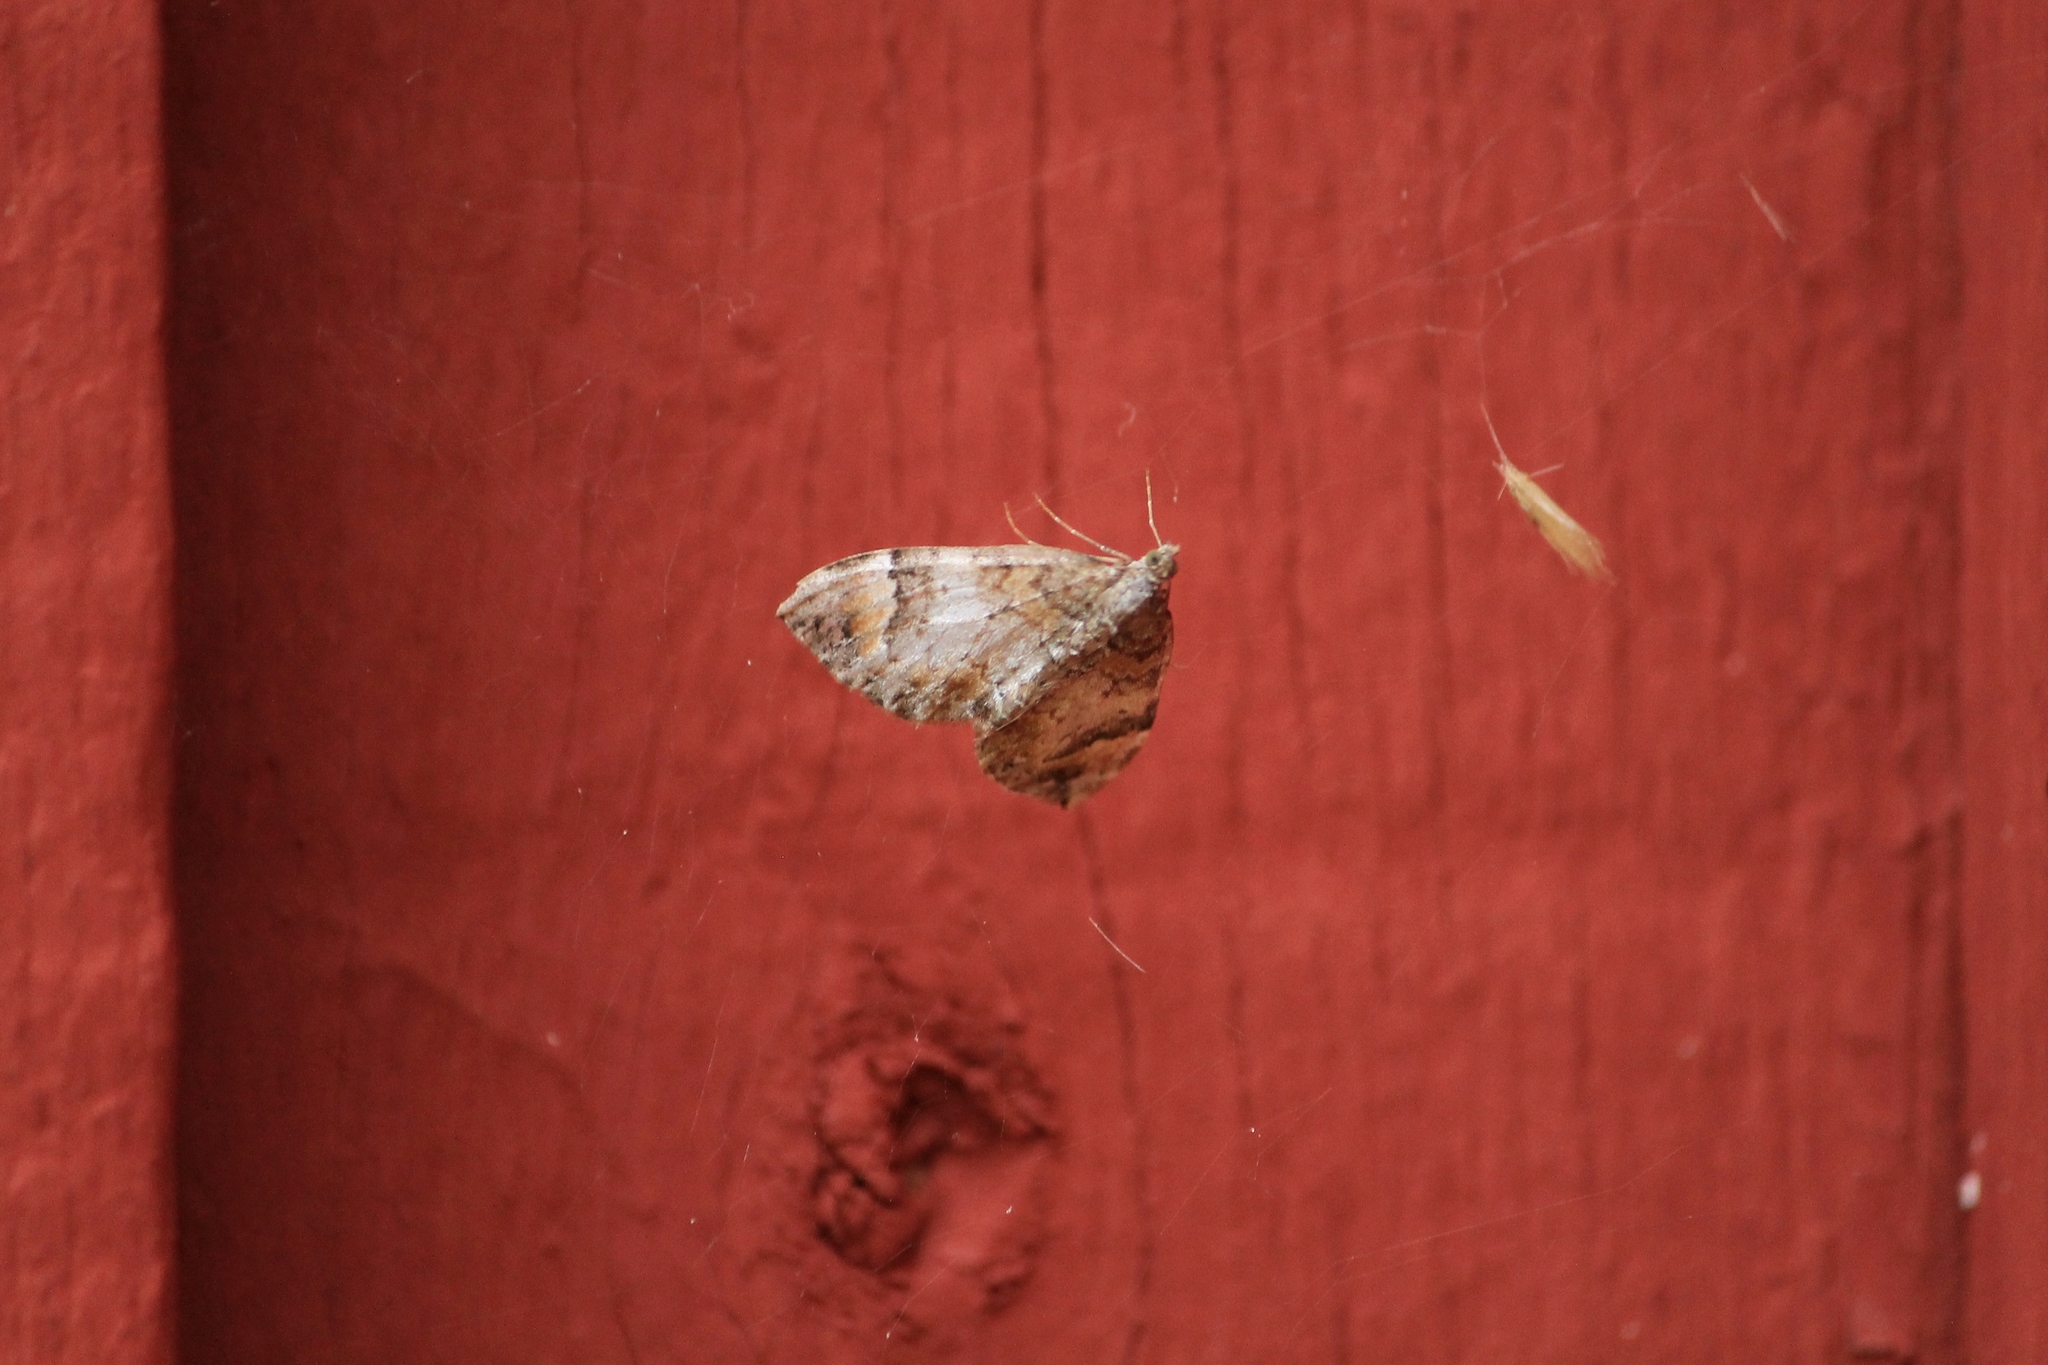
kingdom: Animalia
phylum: Arthropoda
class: Insecta
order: Lepidoptera
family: Geometridae
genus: Dysstroma
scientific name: Dysstroma truncata
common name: Common marbled carpet
